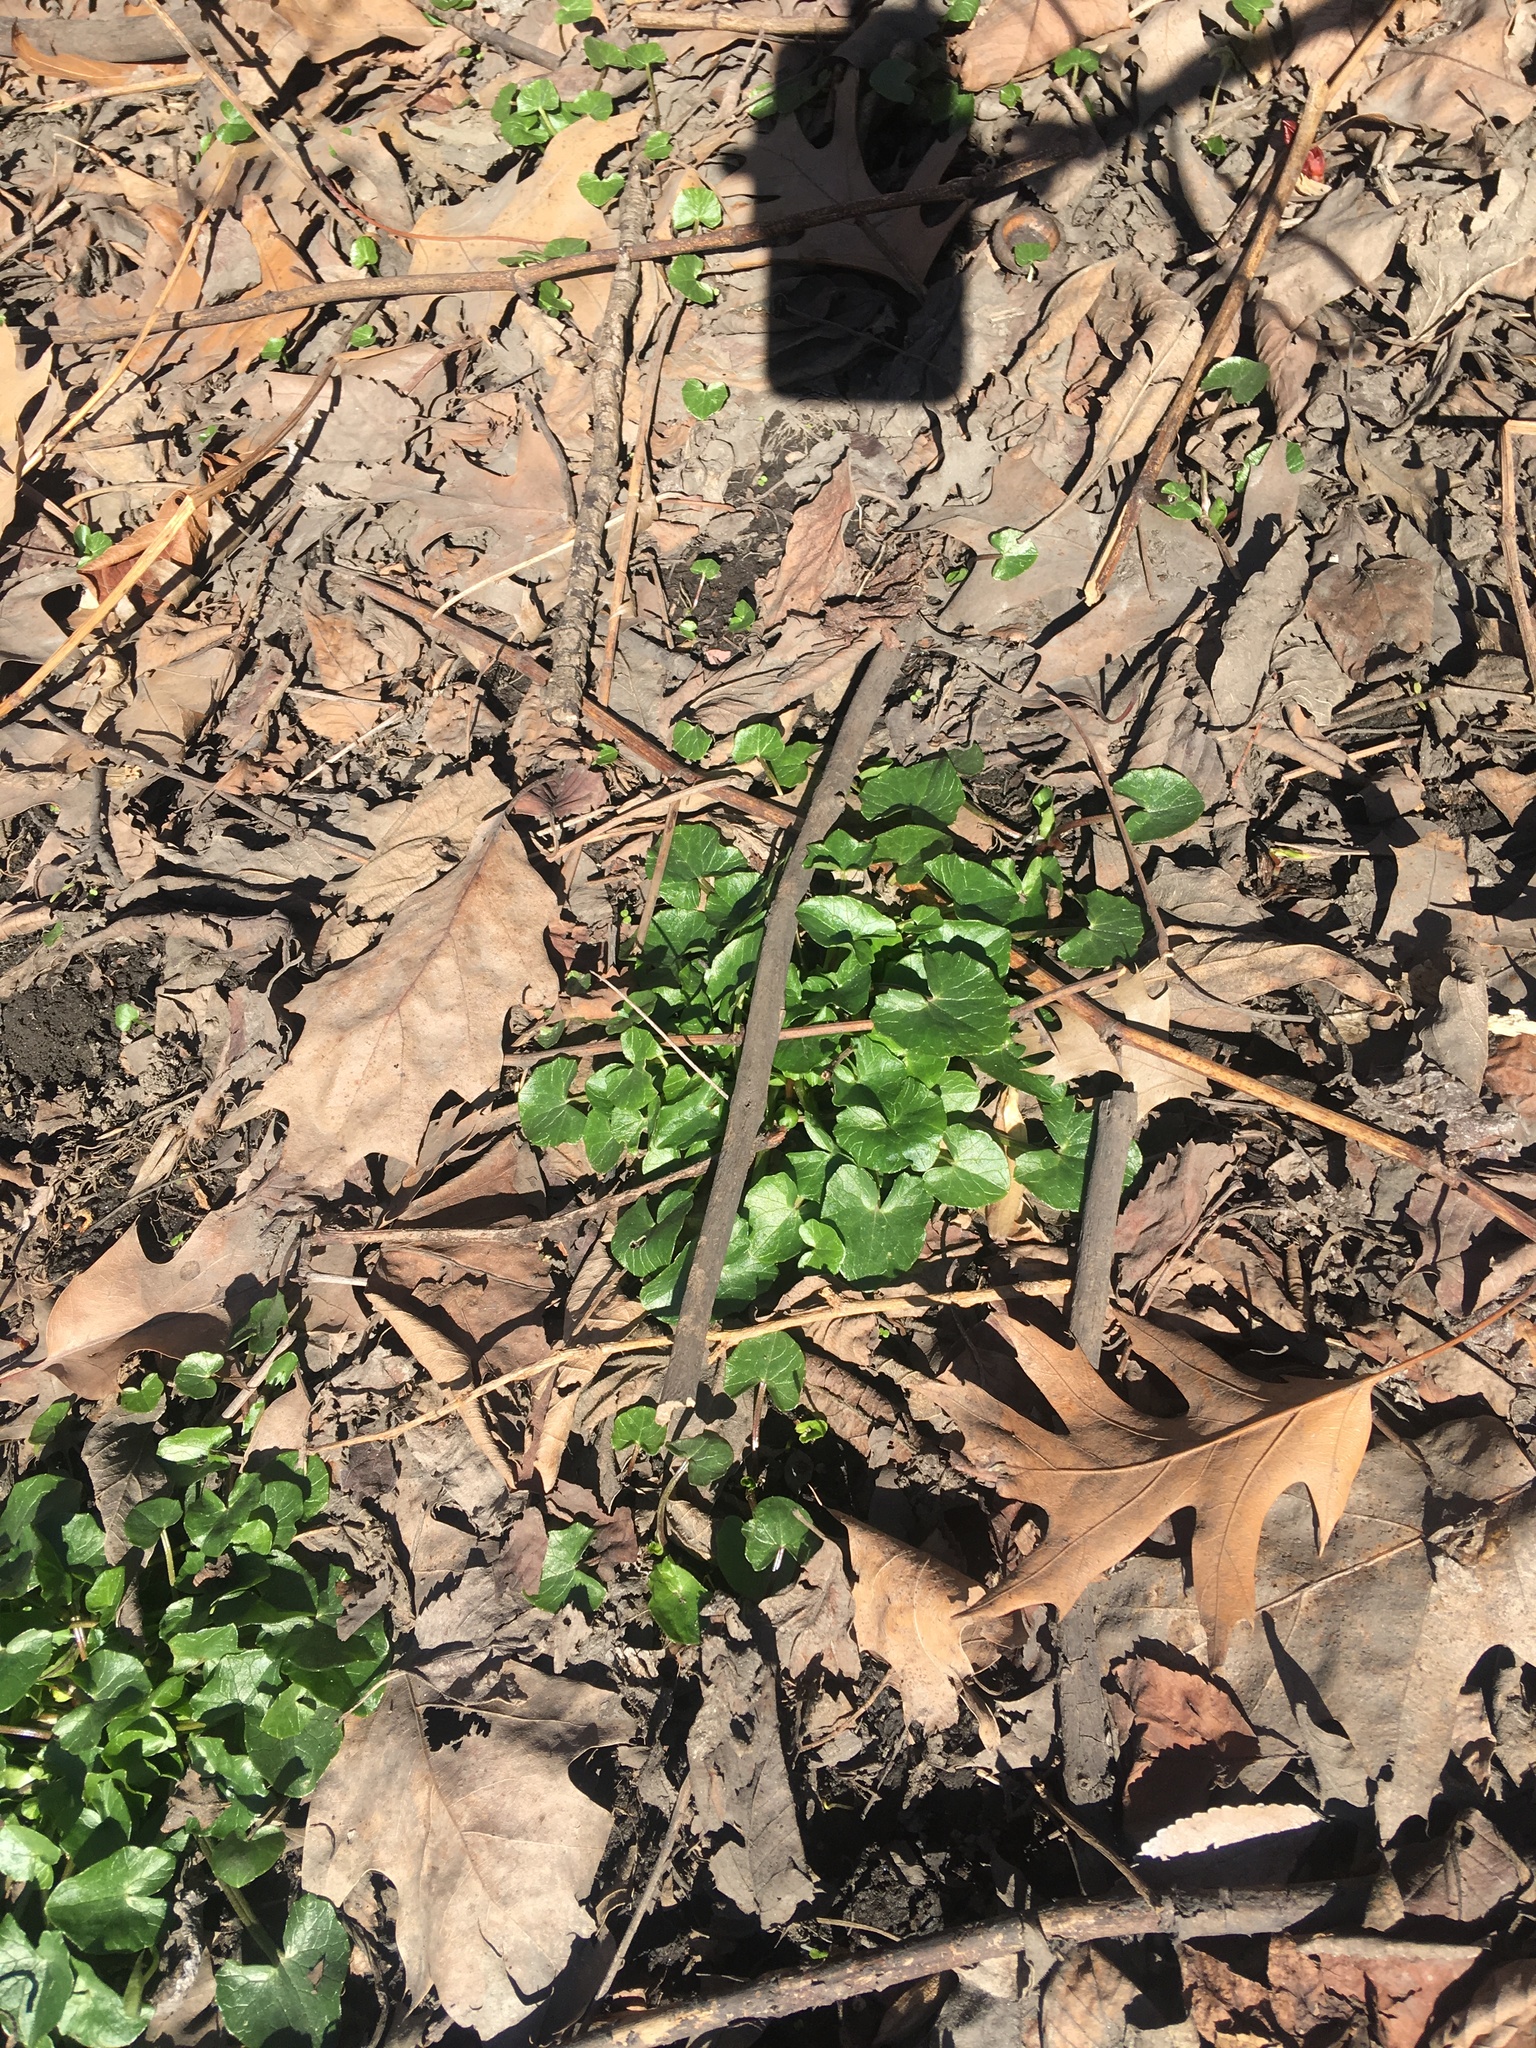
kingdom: Plantae
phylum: Tracheophyta
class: Magnoliopsida
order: Ranunculales
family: Ranunculaceae
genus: Ficaria
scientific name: Ficaria verna
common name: Lesser celandine
